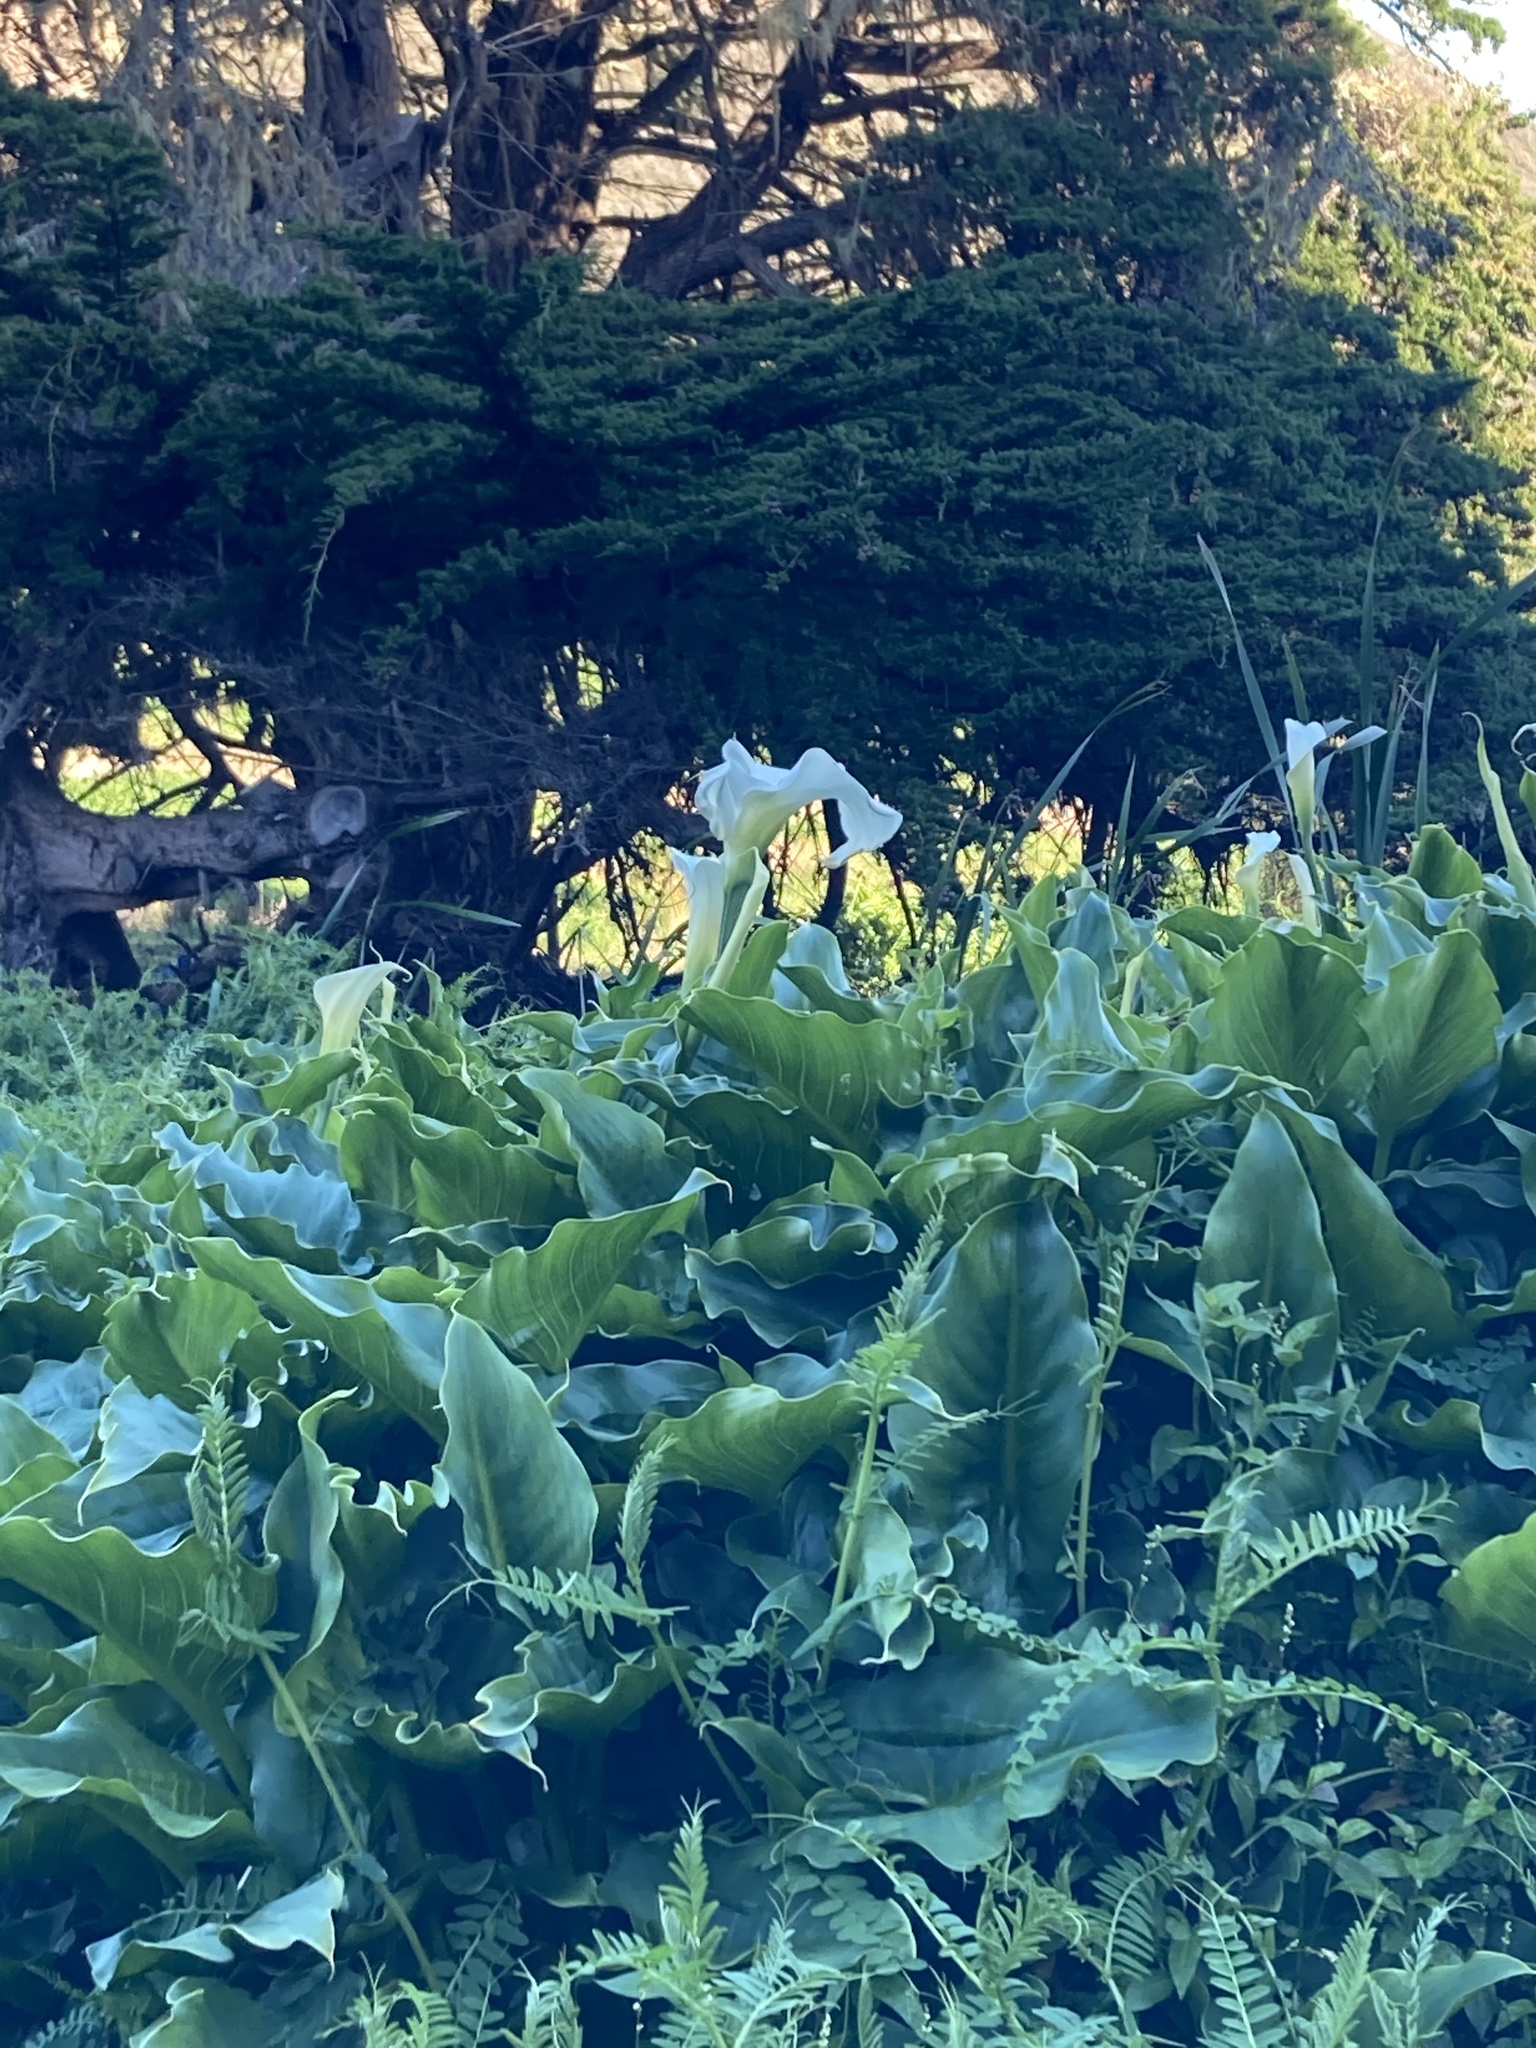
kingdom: Plantae
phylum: Tracheophyta
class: Liliopsida
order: Alismatales
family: Araceae
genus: Zantedeschia
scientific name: Zantedeschia aethiopica
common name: Altar-lily
